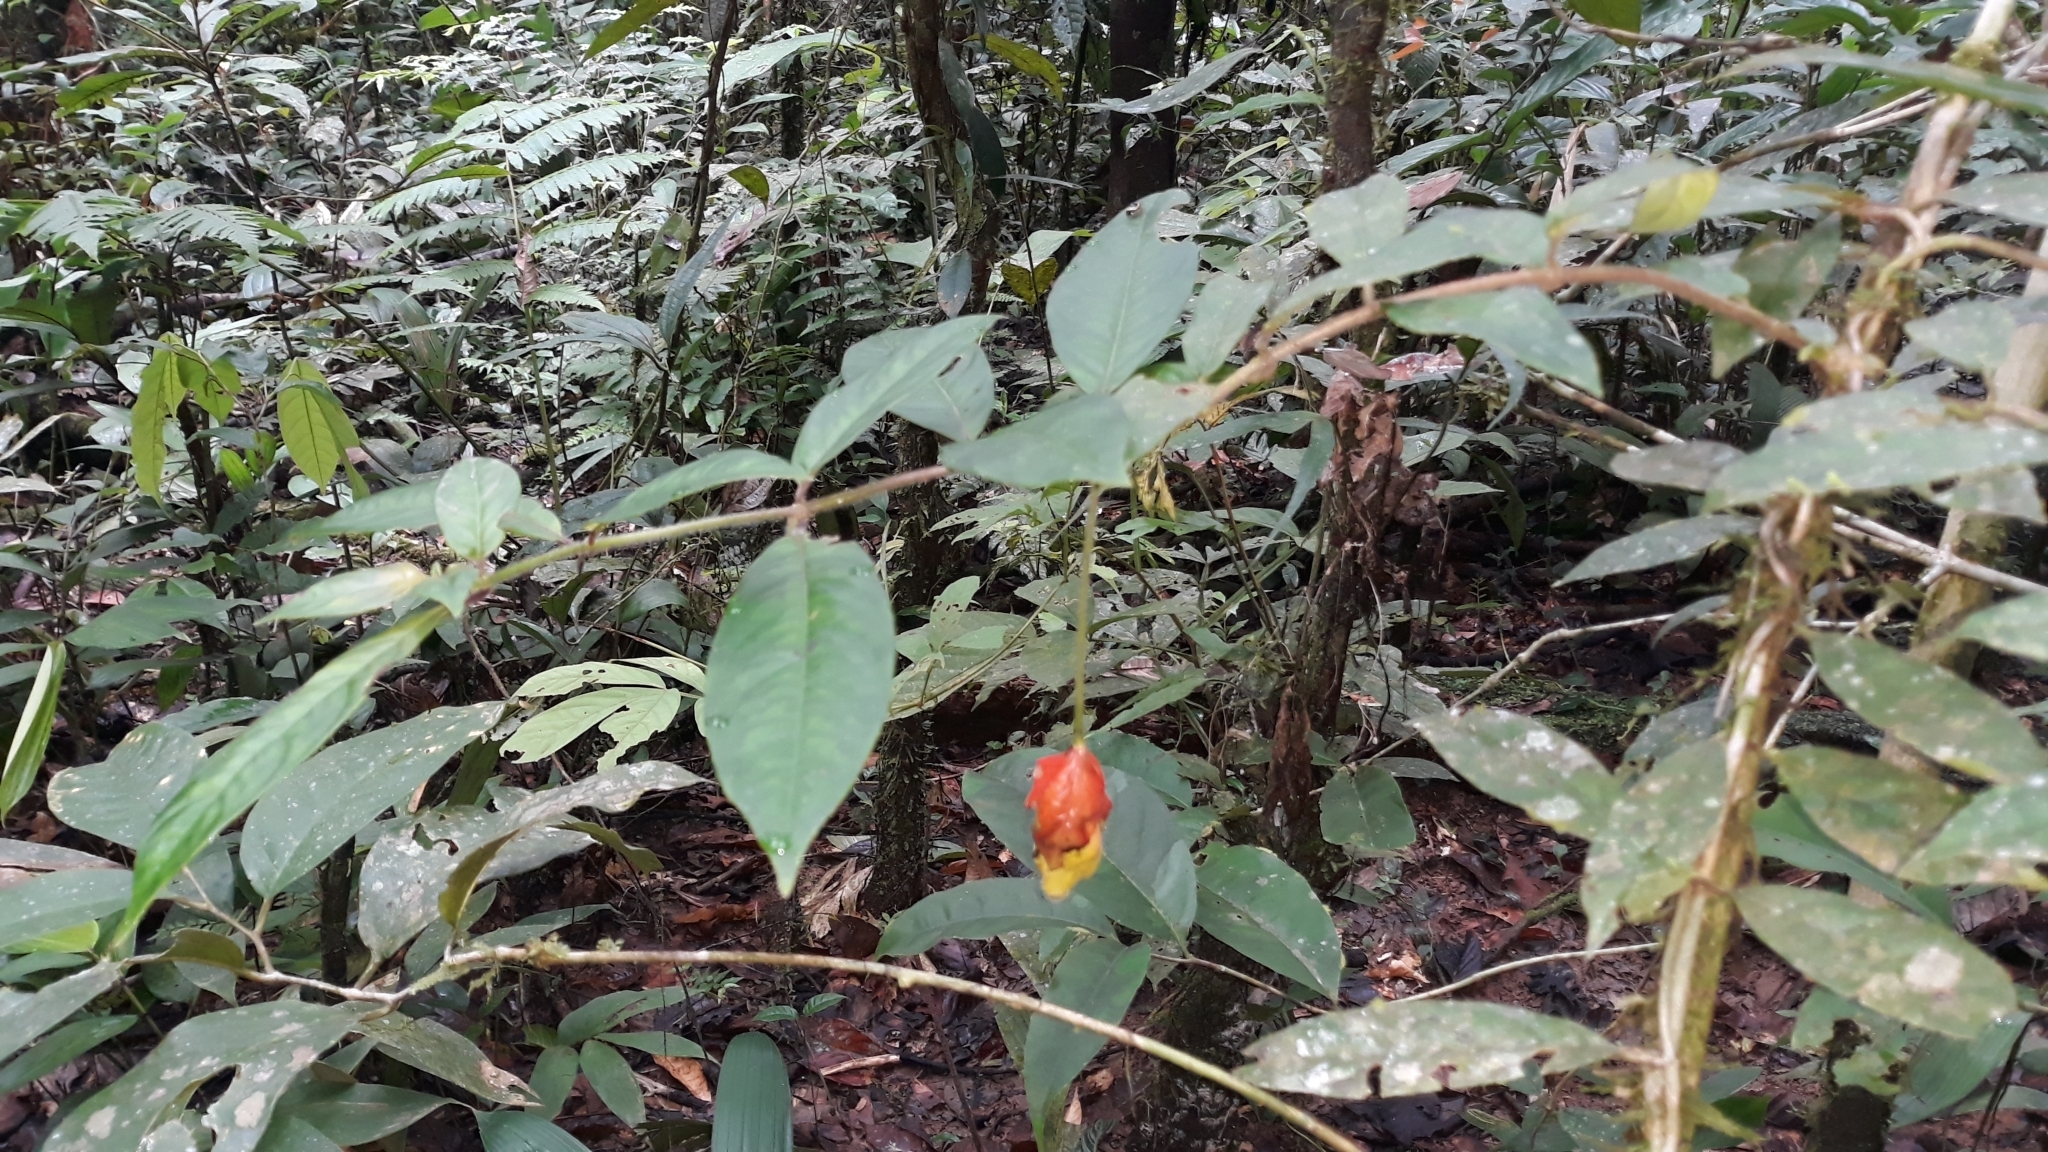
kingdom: Plantae
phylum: Tracheophyta
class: Magnoliopsida
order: Lamiales
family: Gesneriaceae
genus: Drymonia
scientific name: Drymonia coccinea
